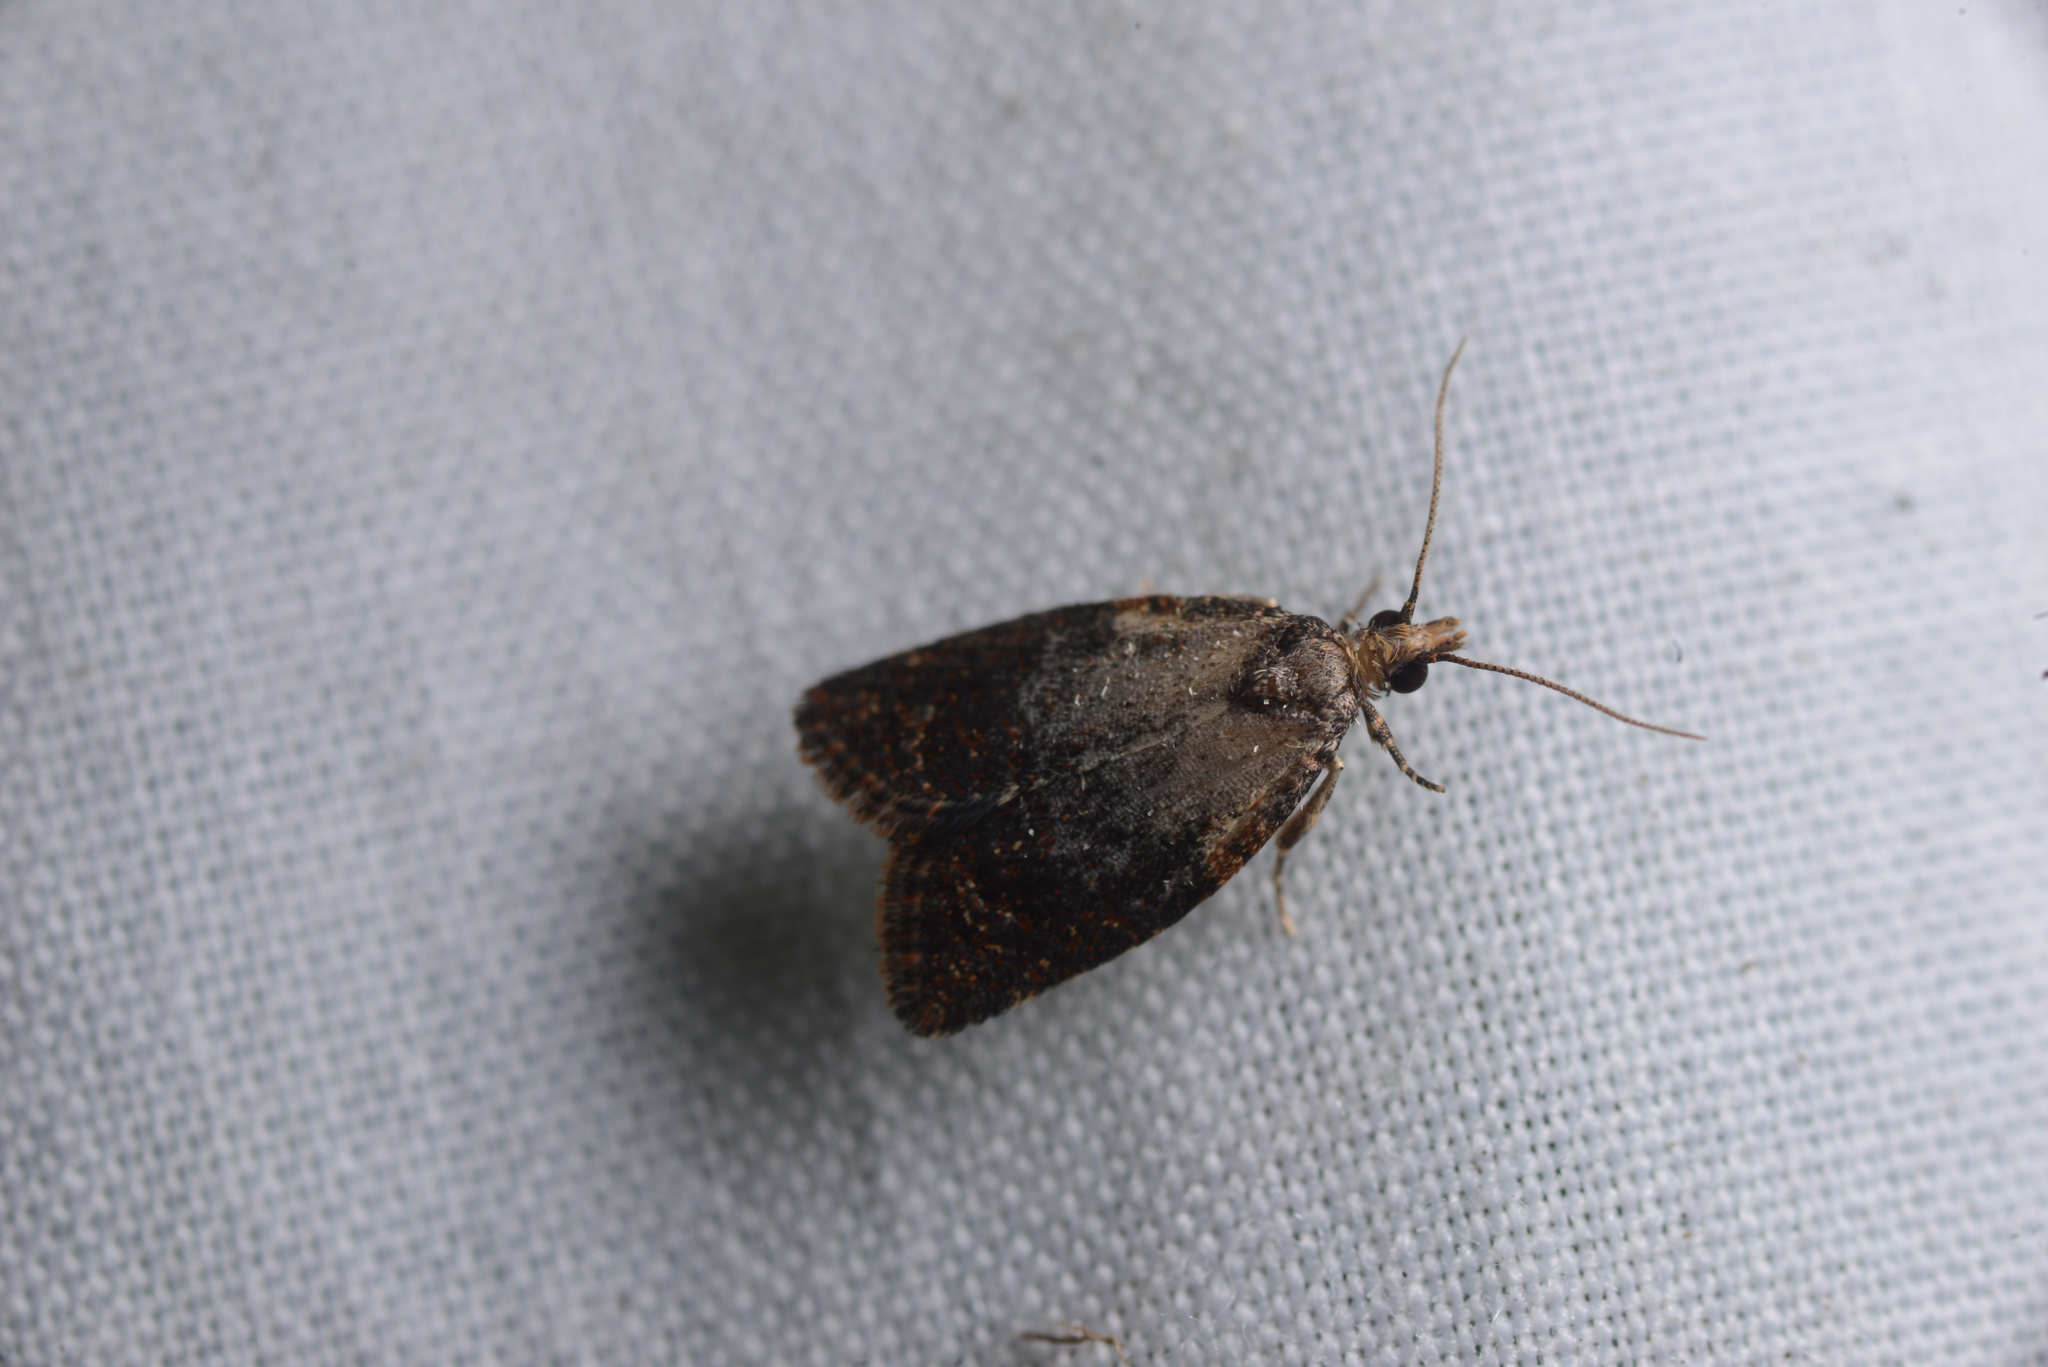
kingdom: Animalia
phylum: Arthropoda
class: Insecta
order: Lepidoptera
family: Tortricidae
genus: Capua
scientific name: Capua intractana
